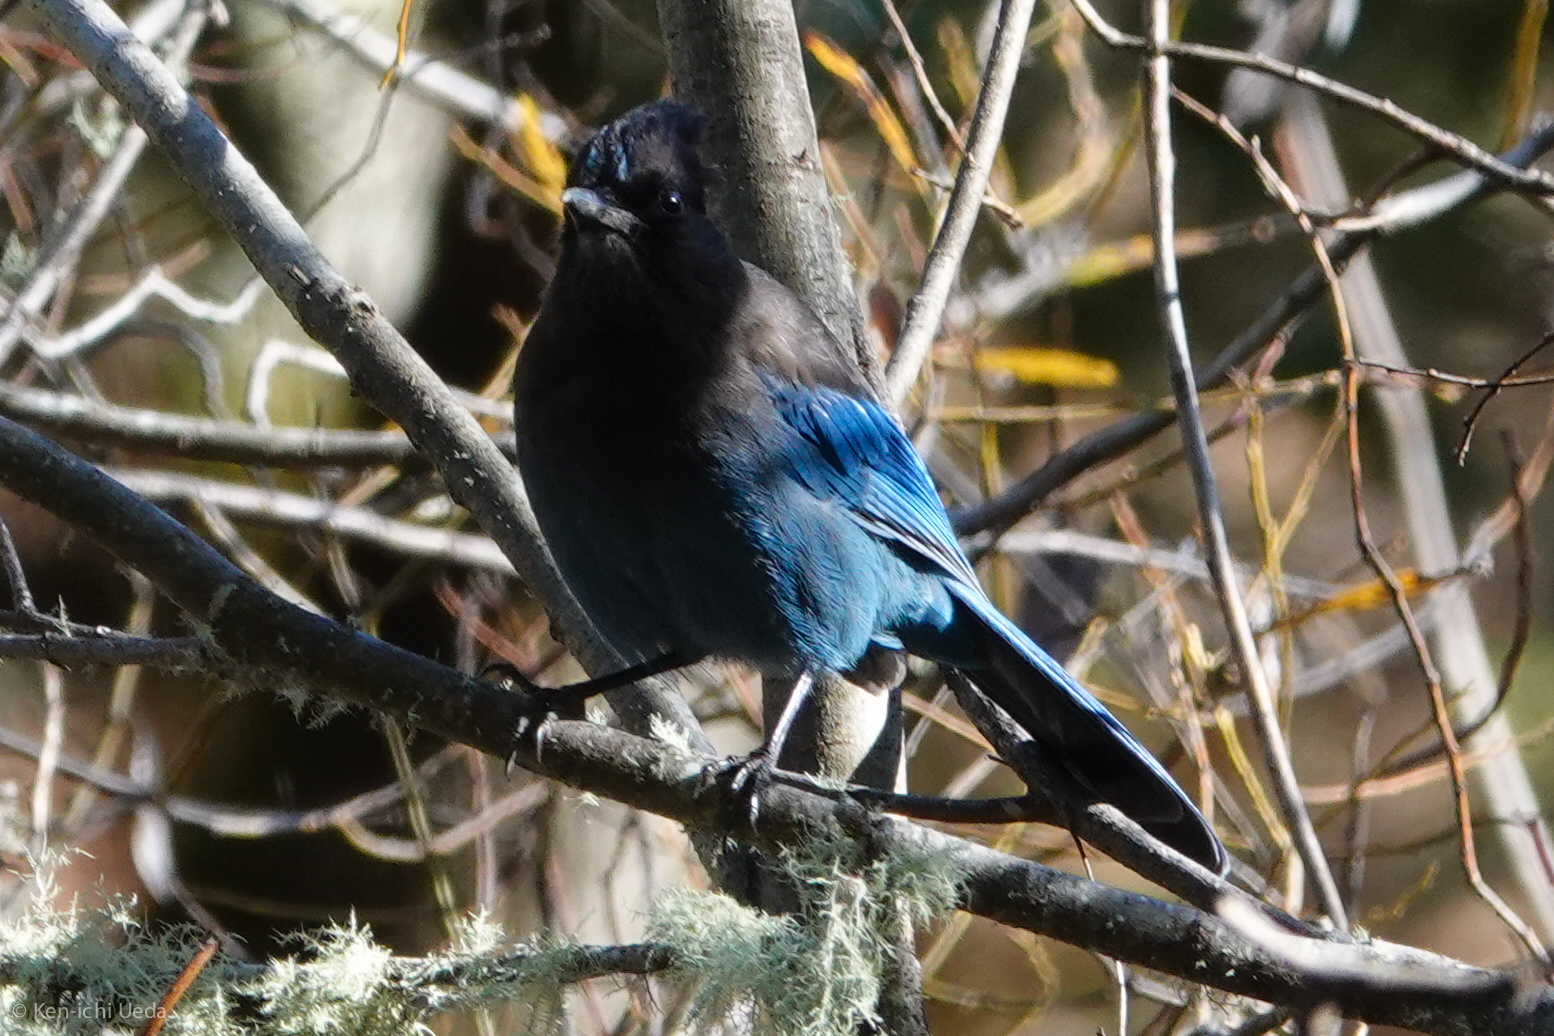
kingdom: Animalia
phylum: Chordata
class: Aves
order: Passeriformes
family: Corvidae
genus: Cyanocitta
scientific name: Cyanocitta stelleri
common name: Steller's jay
